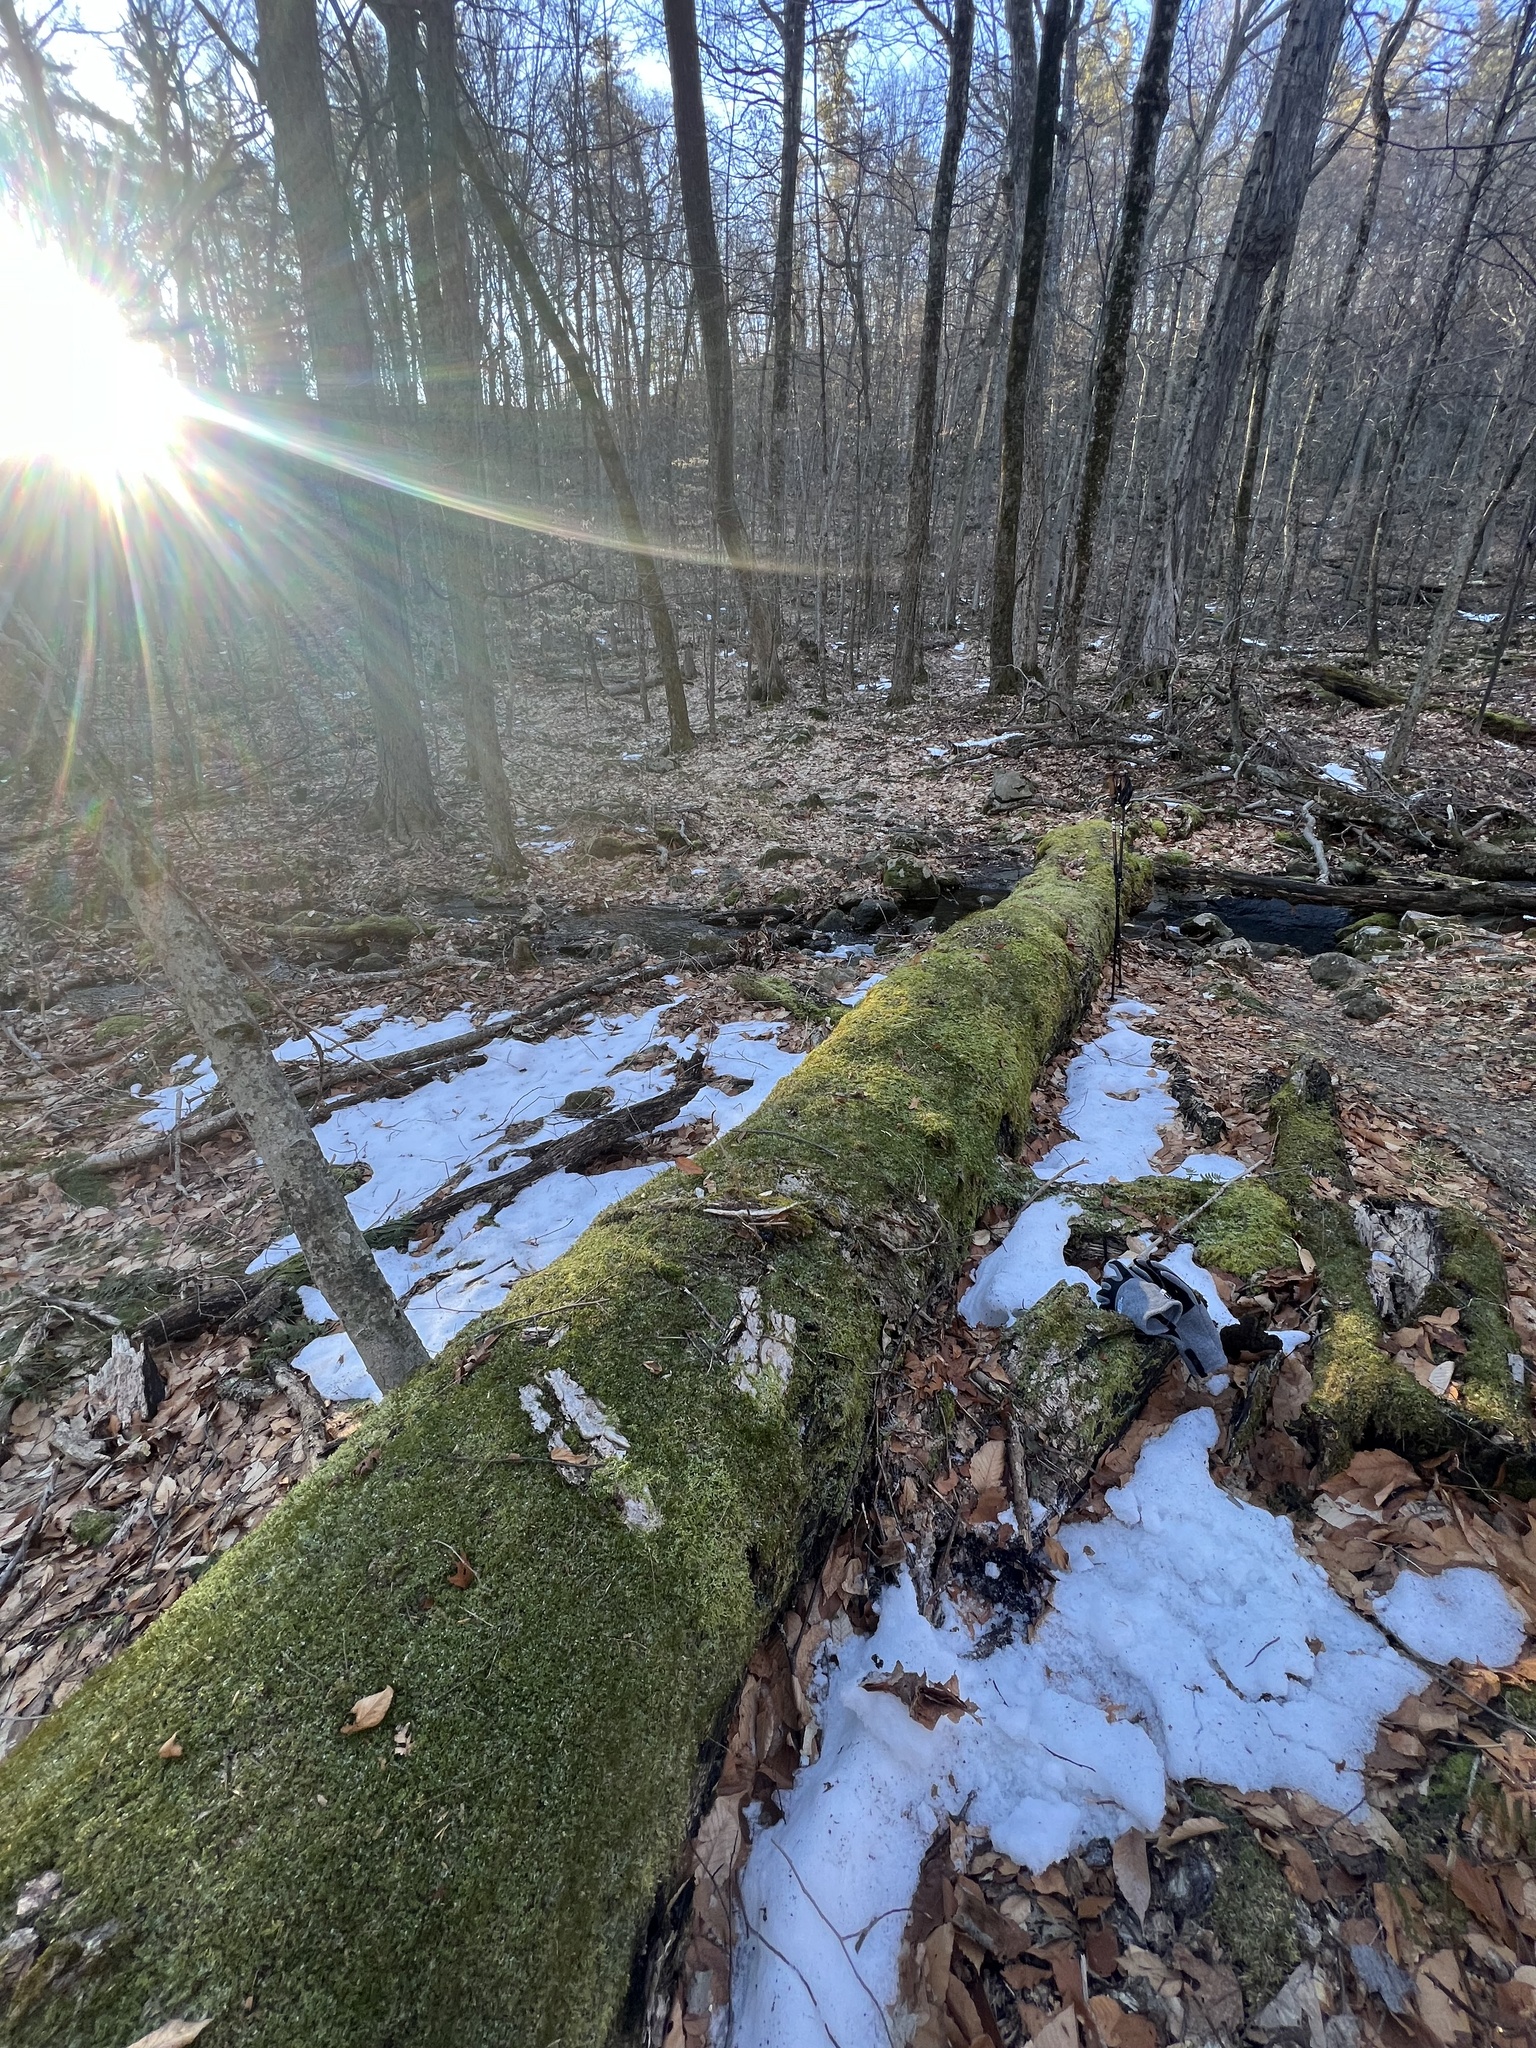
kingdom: Plantae
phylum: Bryophyta
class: Bryopsida
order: Hypnales
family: Callicladiaceae
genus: Callicladium
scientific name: Callicladium haldanianum
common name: Beautiful branch moss
